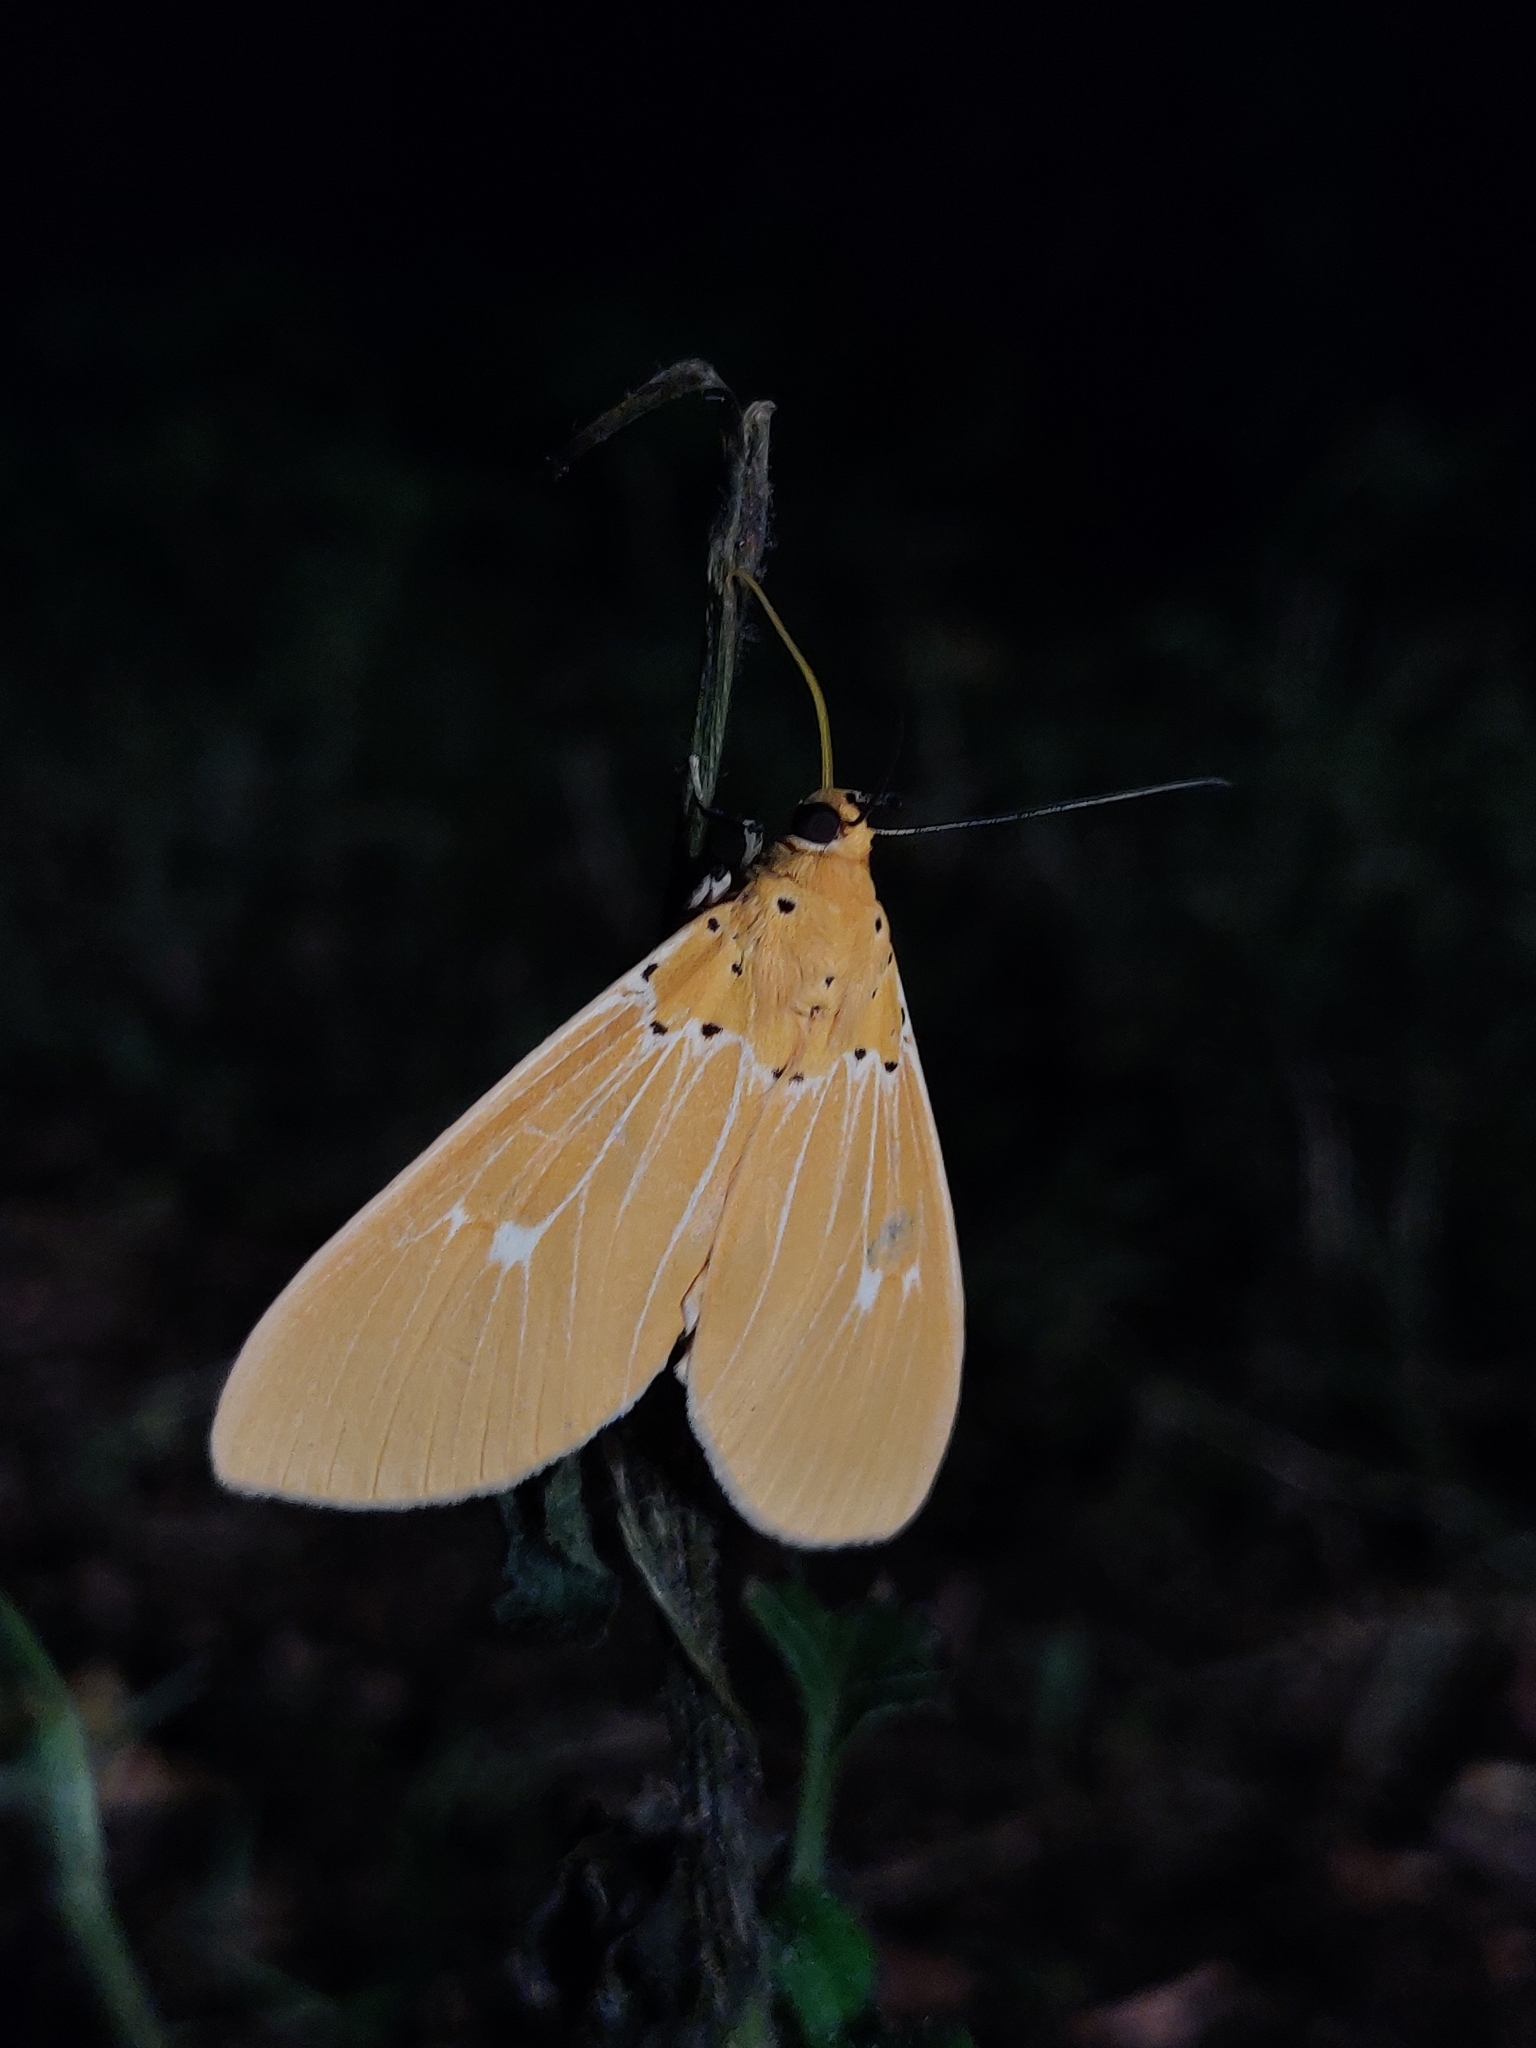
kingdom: Animalia
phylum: Arthropoda
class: Insecta
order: Lepidoptera
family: Erebidae
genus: Asota
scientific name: Asota sericea
